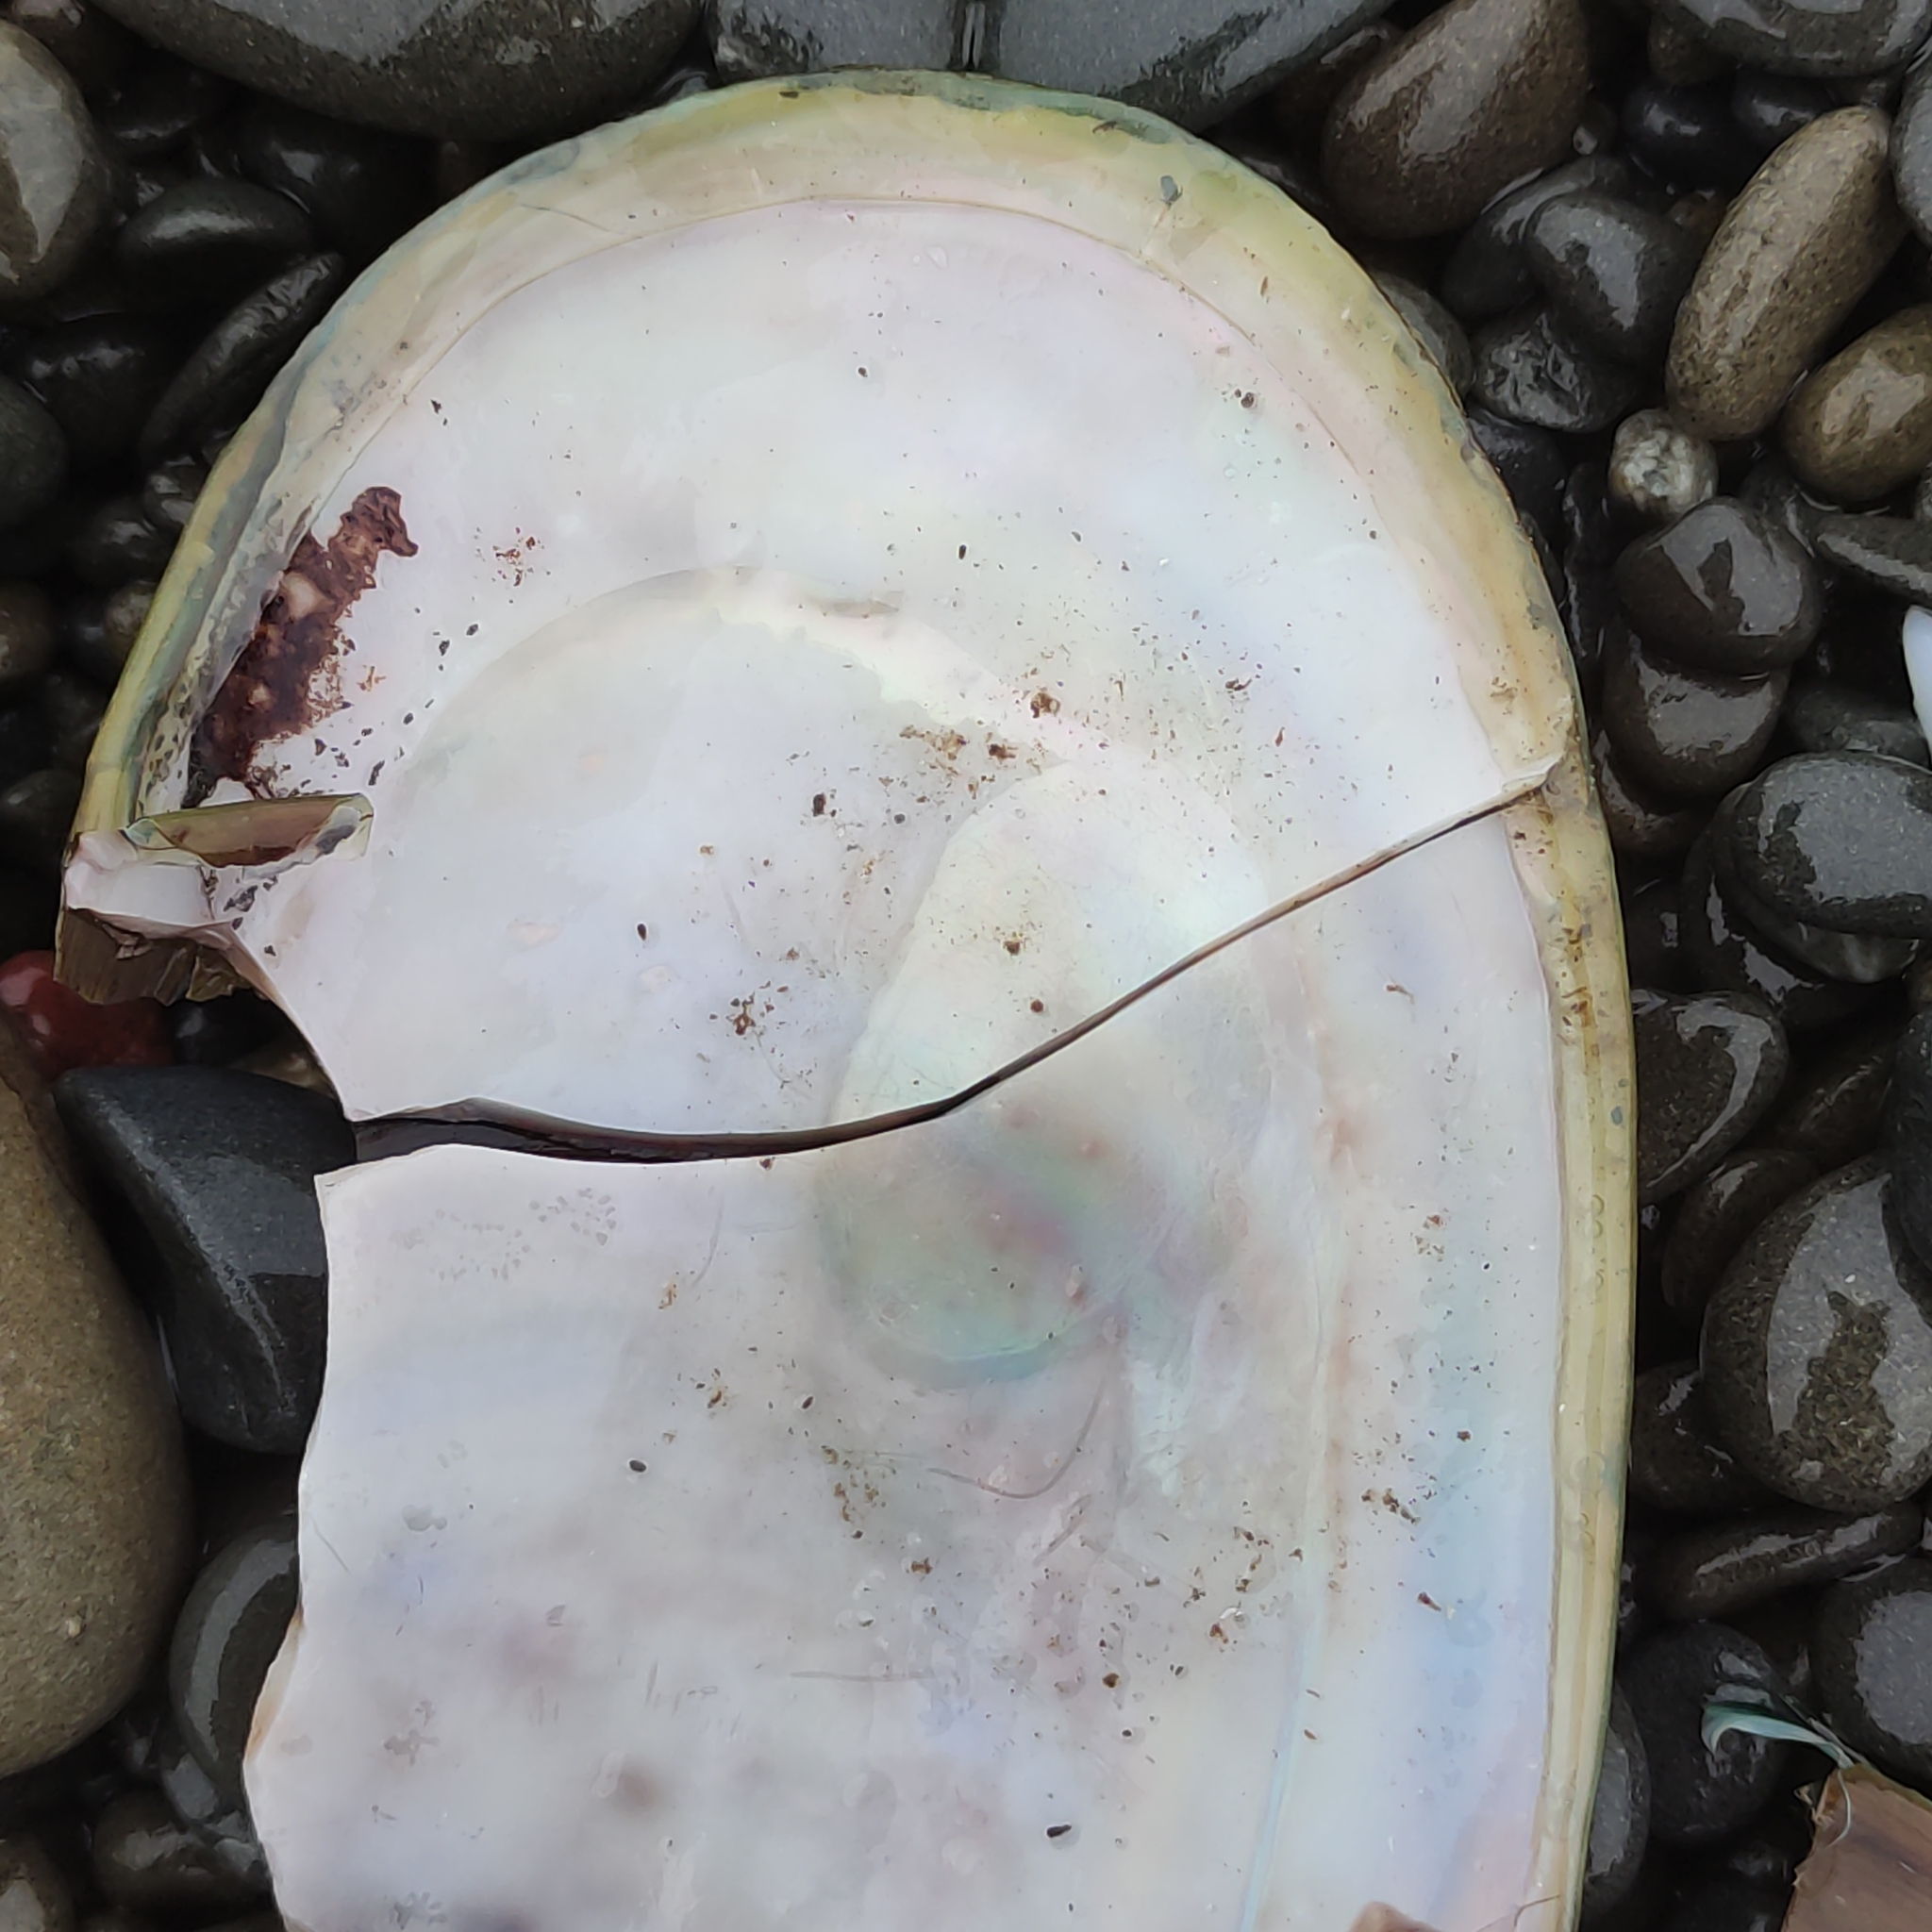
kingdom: Animalia
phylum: Mollusca
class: Bivalvia
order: Mytilida
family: Mytilidae
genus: Perna
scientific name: Perna canaliculus
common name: New zealand greenshelltm
